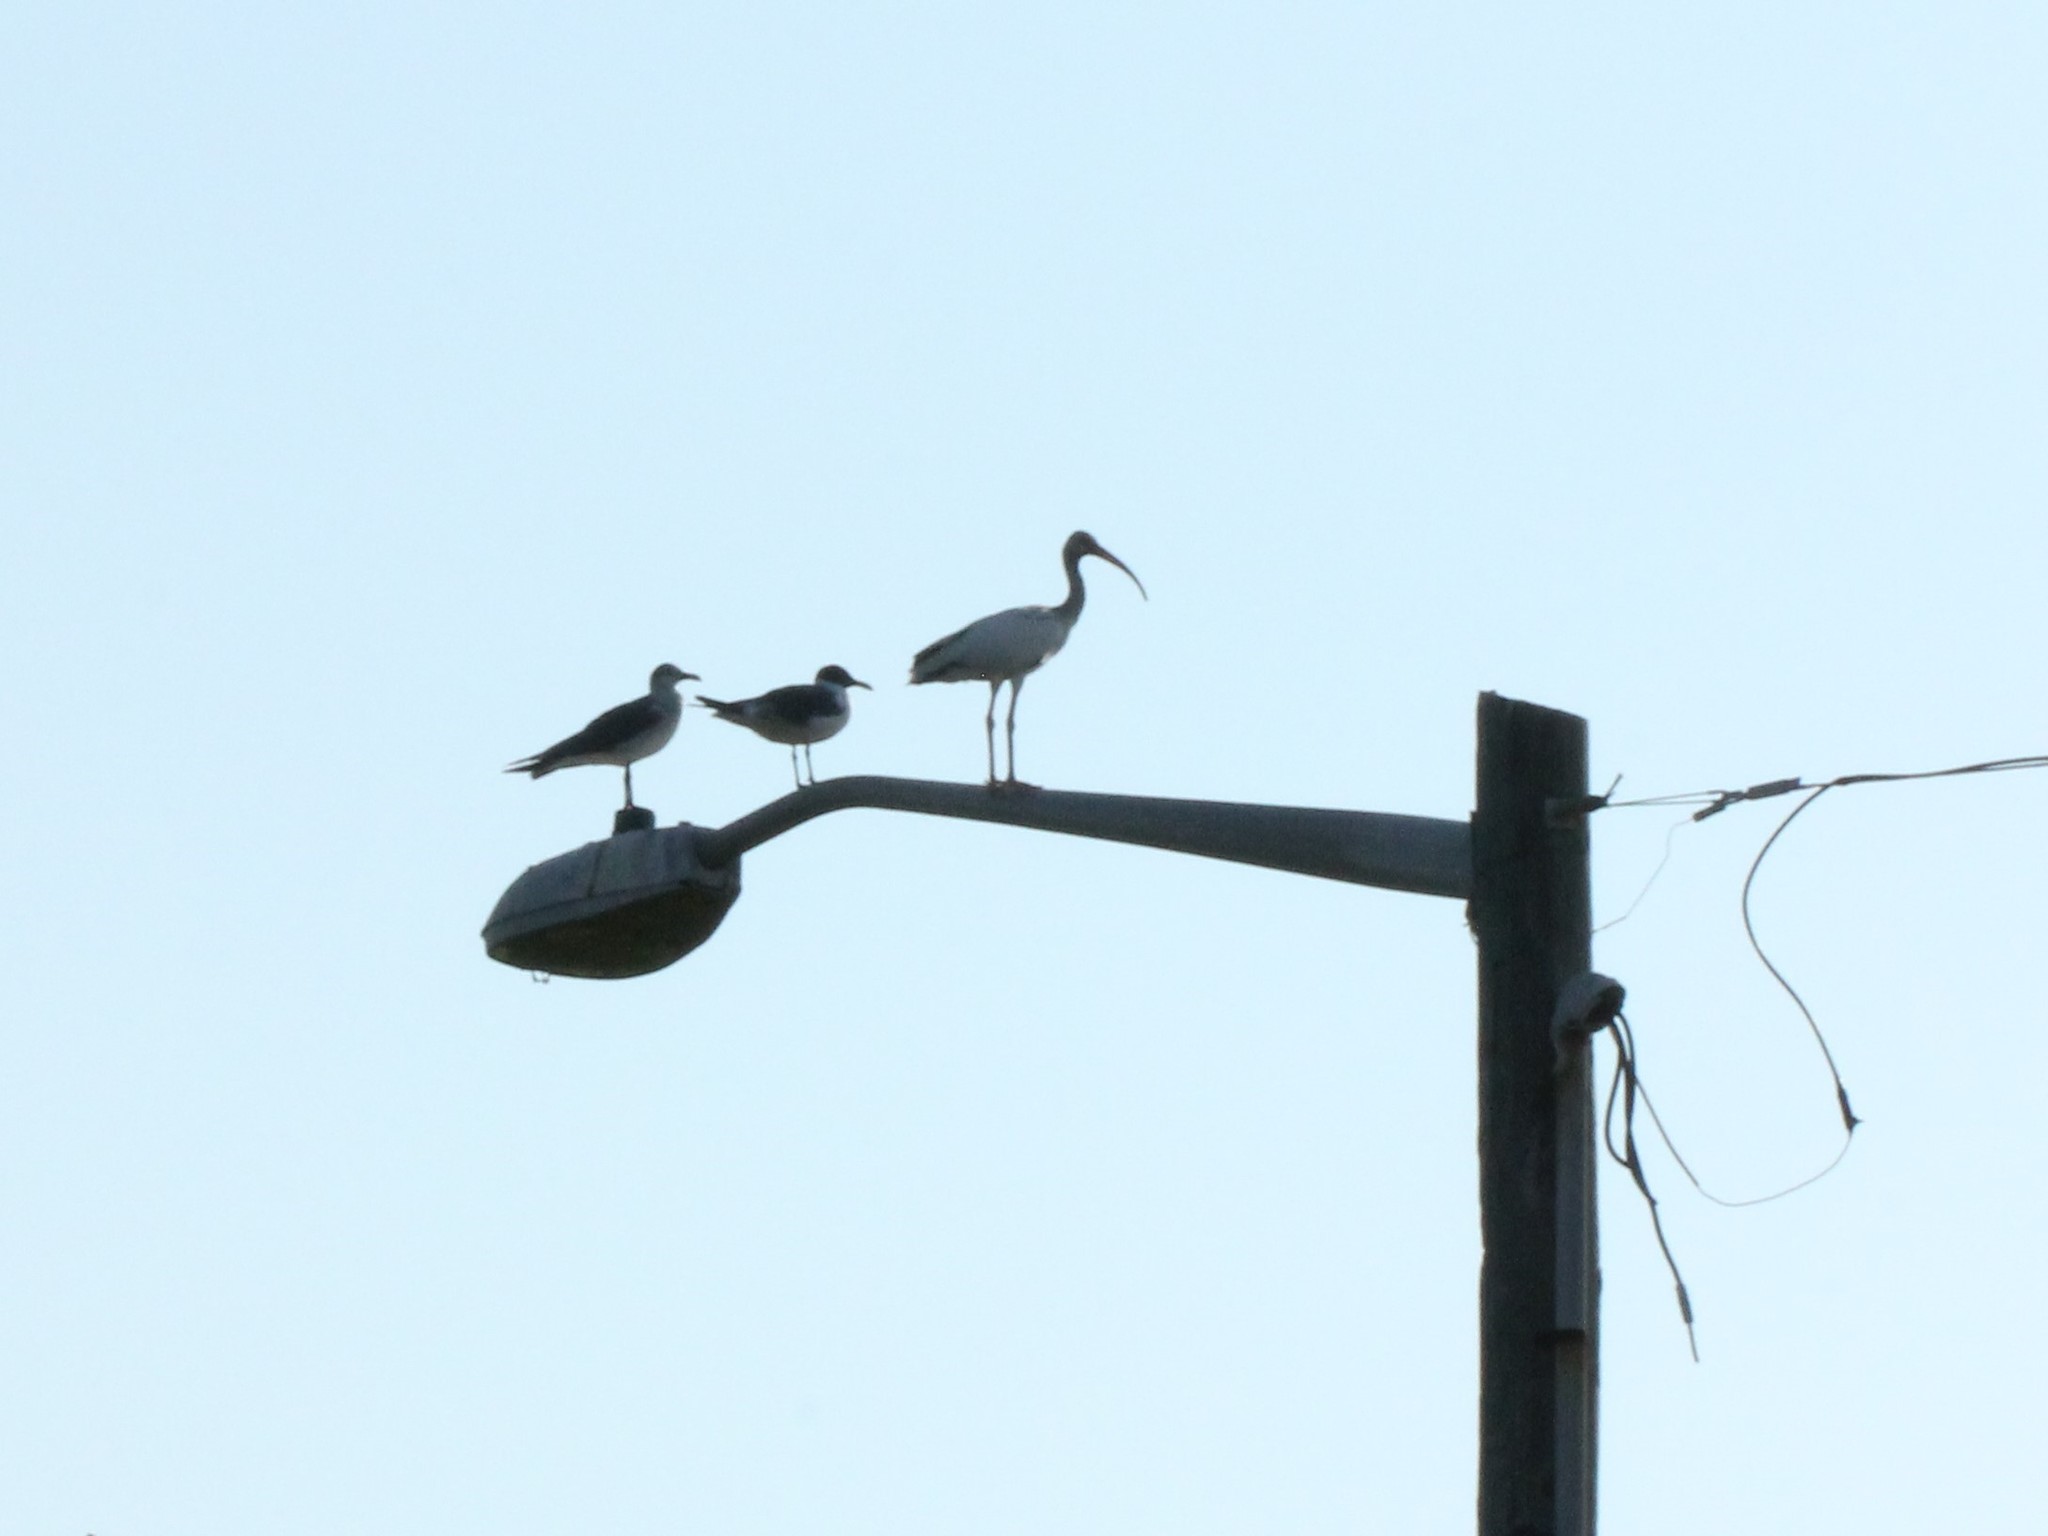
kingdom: Animalia
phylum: Chordata
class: Aves
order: Charadriiformes
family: Laridae
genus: Leucophaeus
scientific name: Leucophaeus atricilla
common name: Laughing gull
